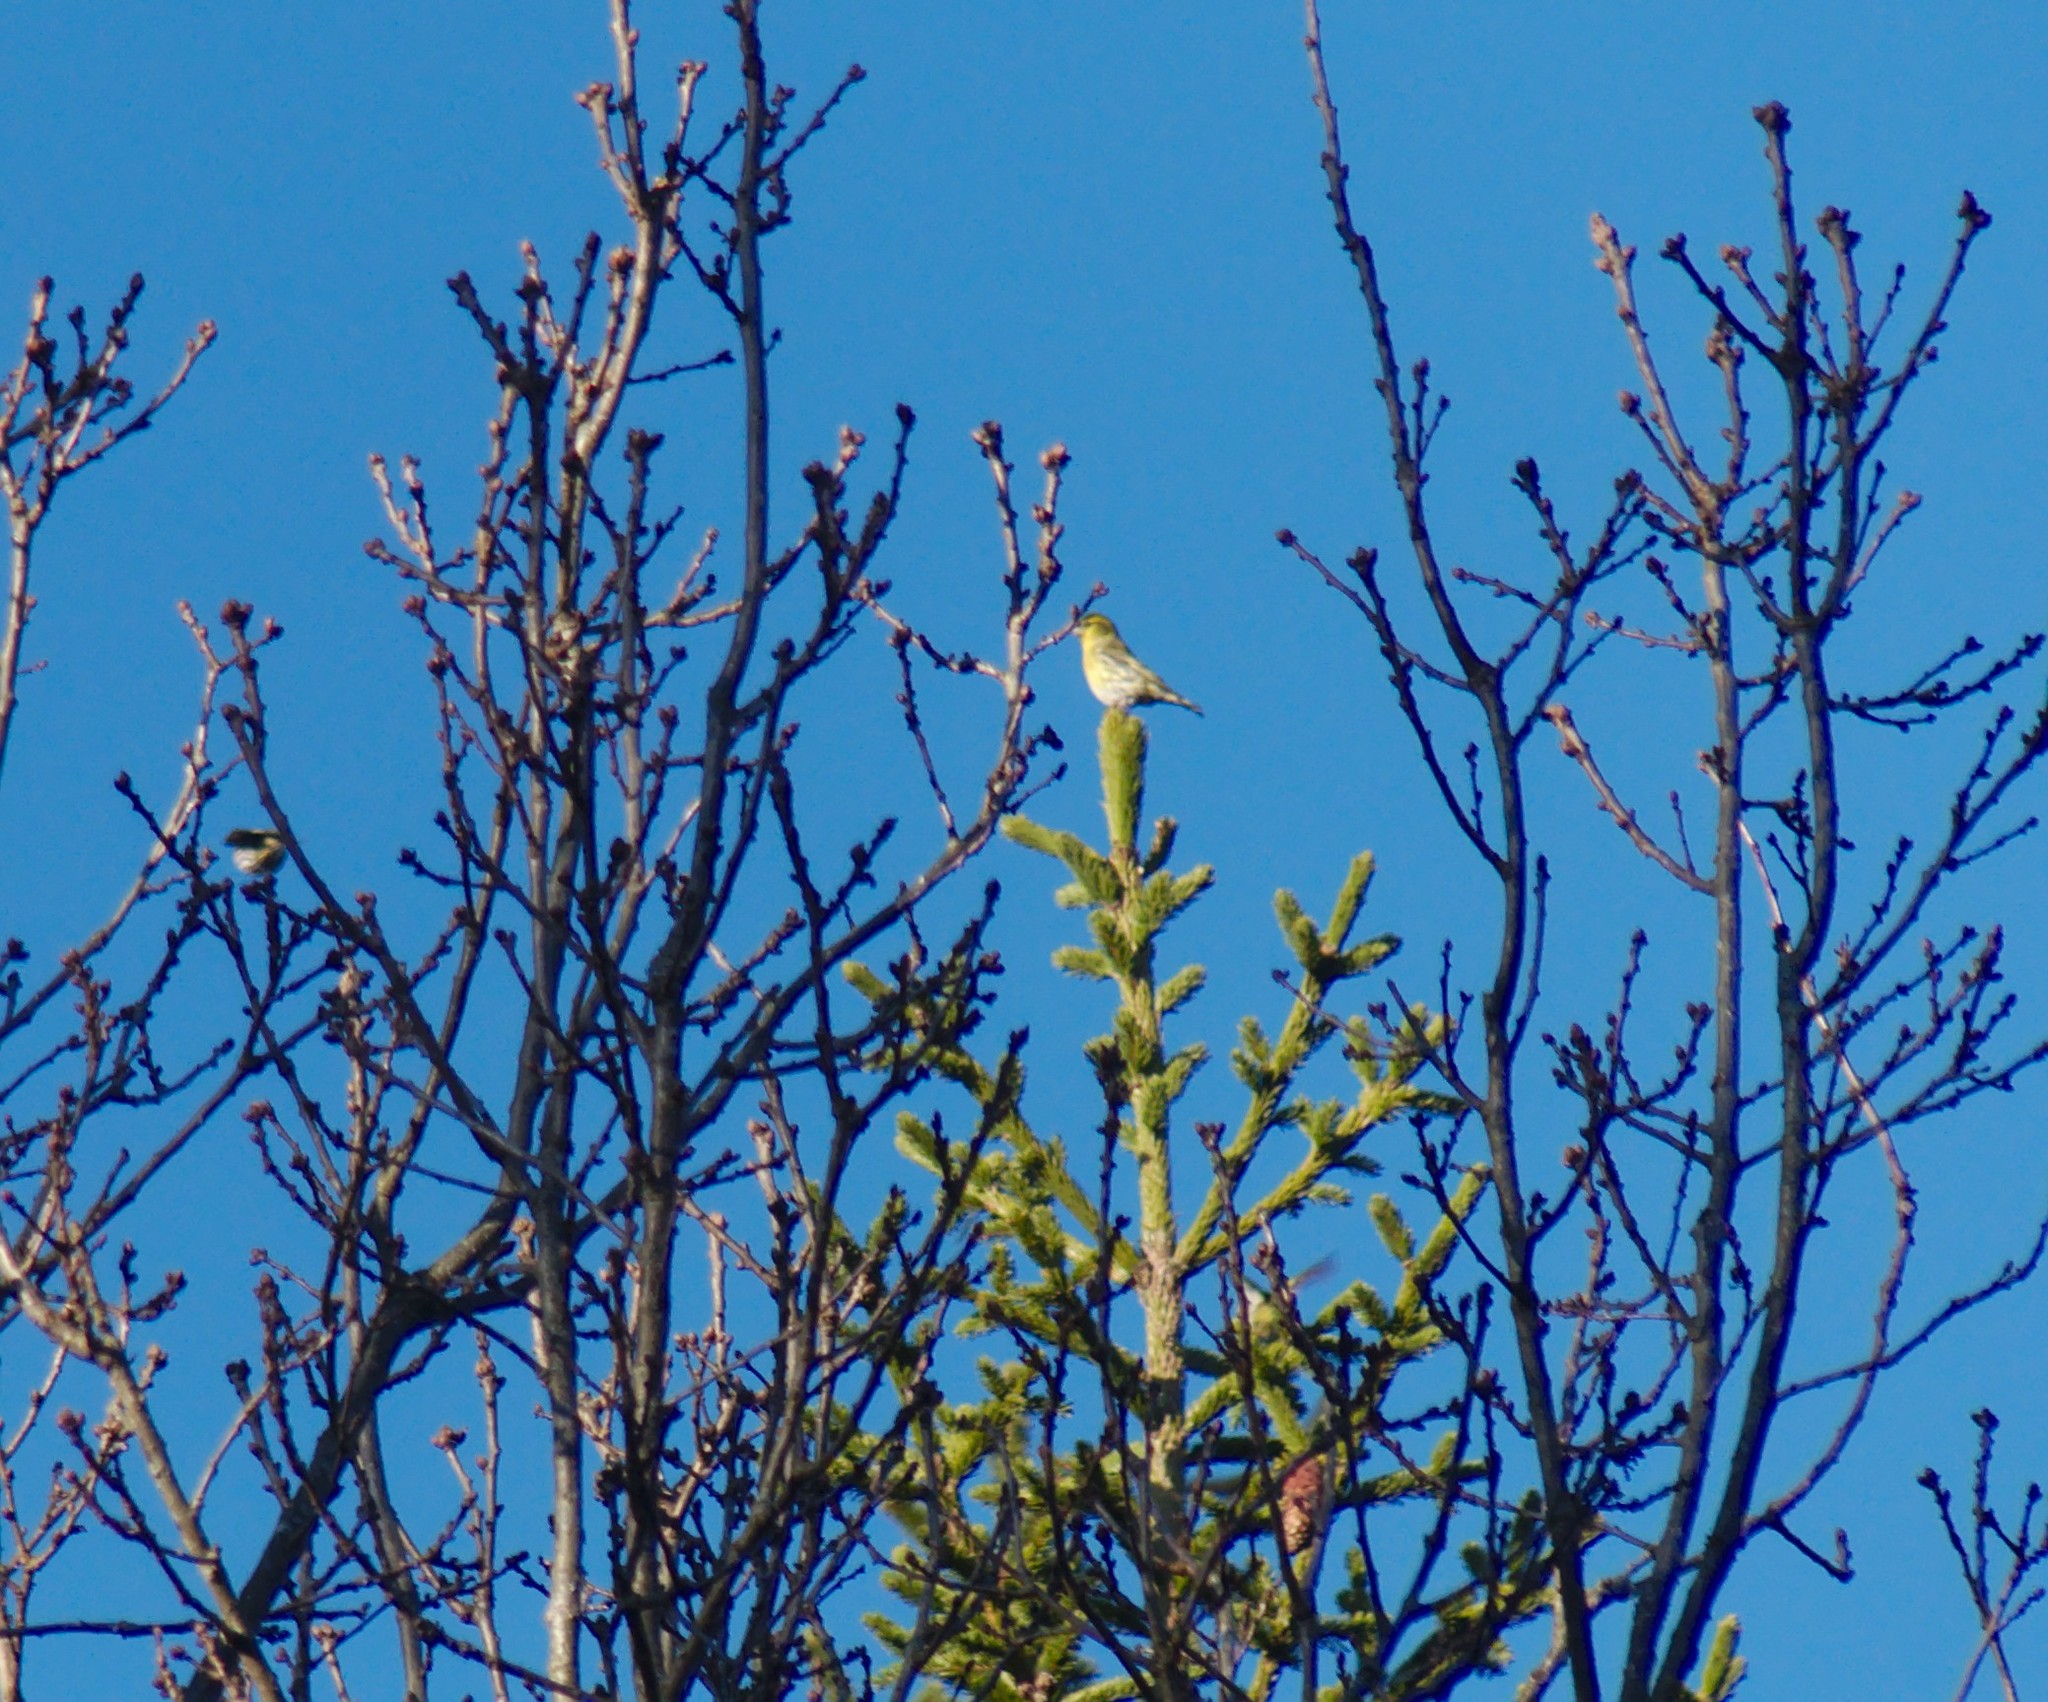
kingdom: Animalia
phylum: Chordata
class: Aves
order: Passeriformes
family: Fringillidae
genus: Spinus
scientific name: Spinus spinus
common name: Eurasian siskin
